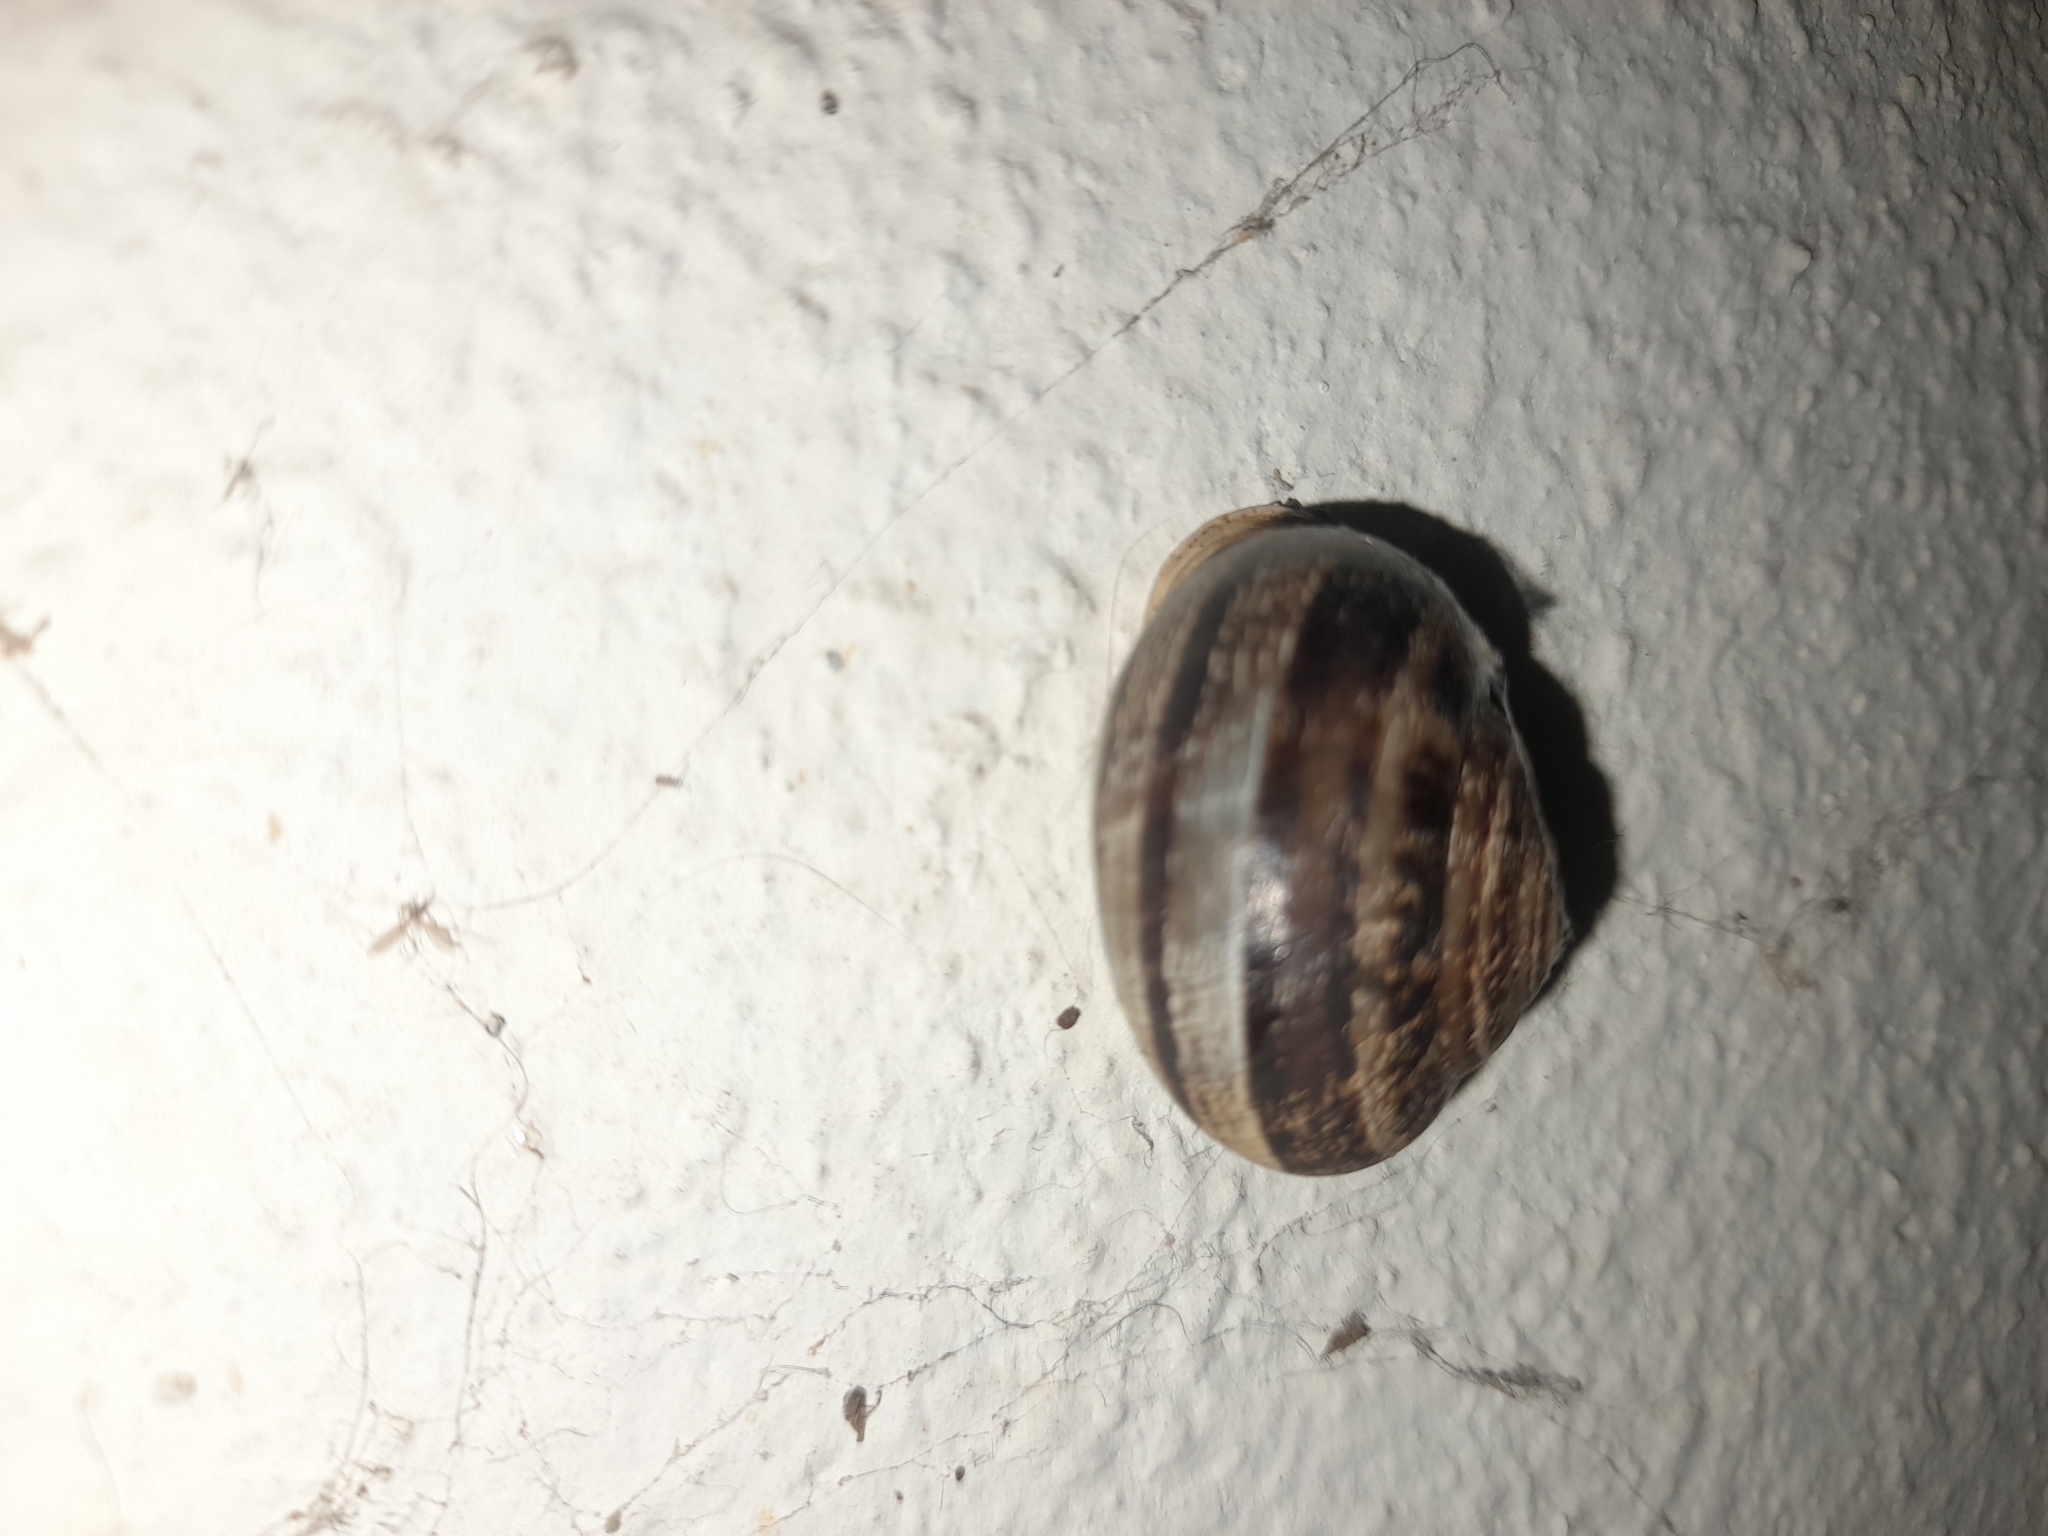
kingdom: Animalia
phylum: Mollusca
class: Gastropoda
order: Stylommatophora
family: Helicidae
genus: Eobania
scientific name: Eobania vermiculata
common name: Chocolateband snail
